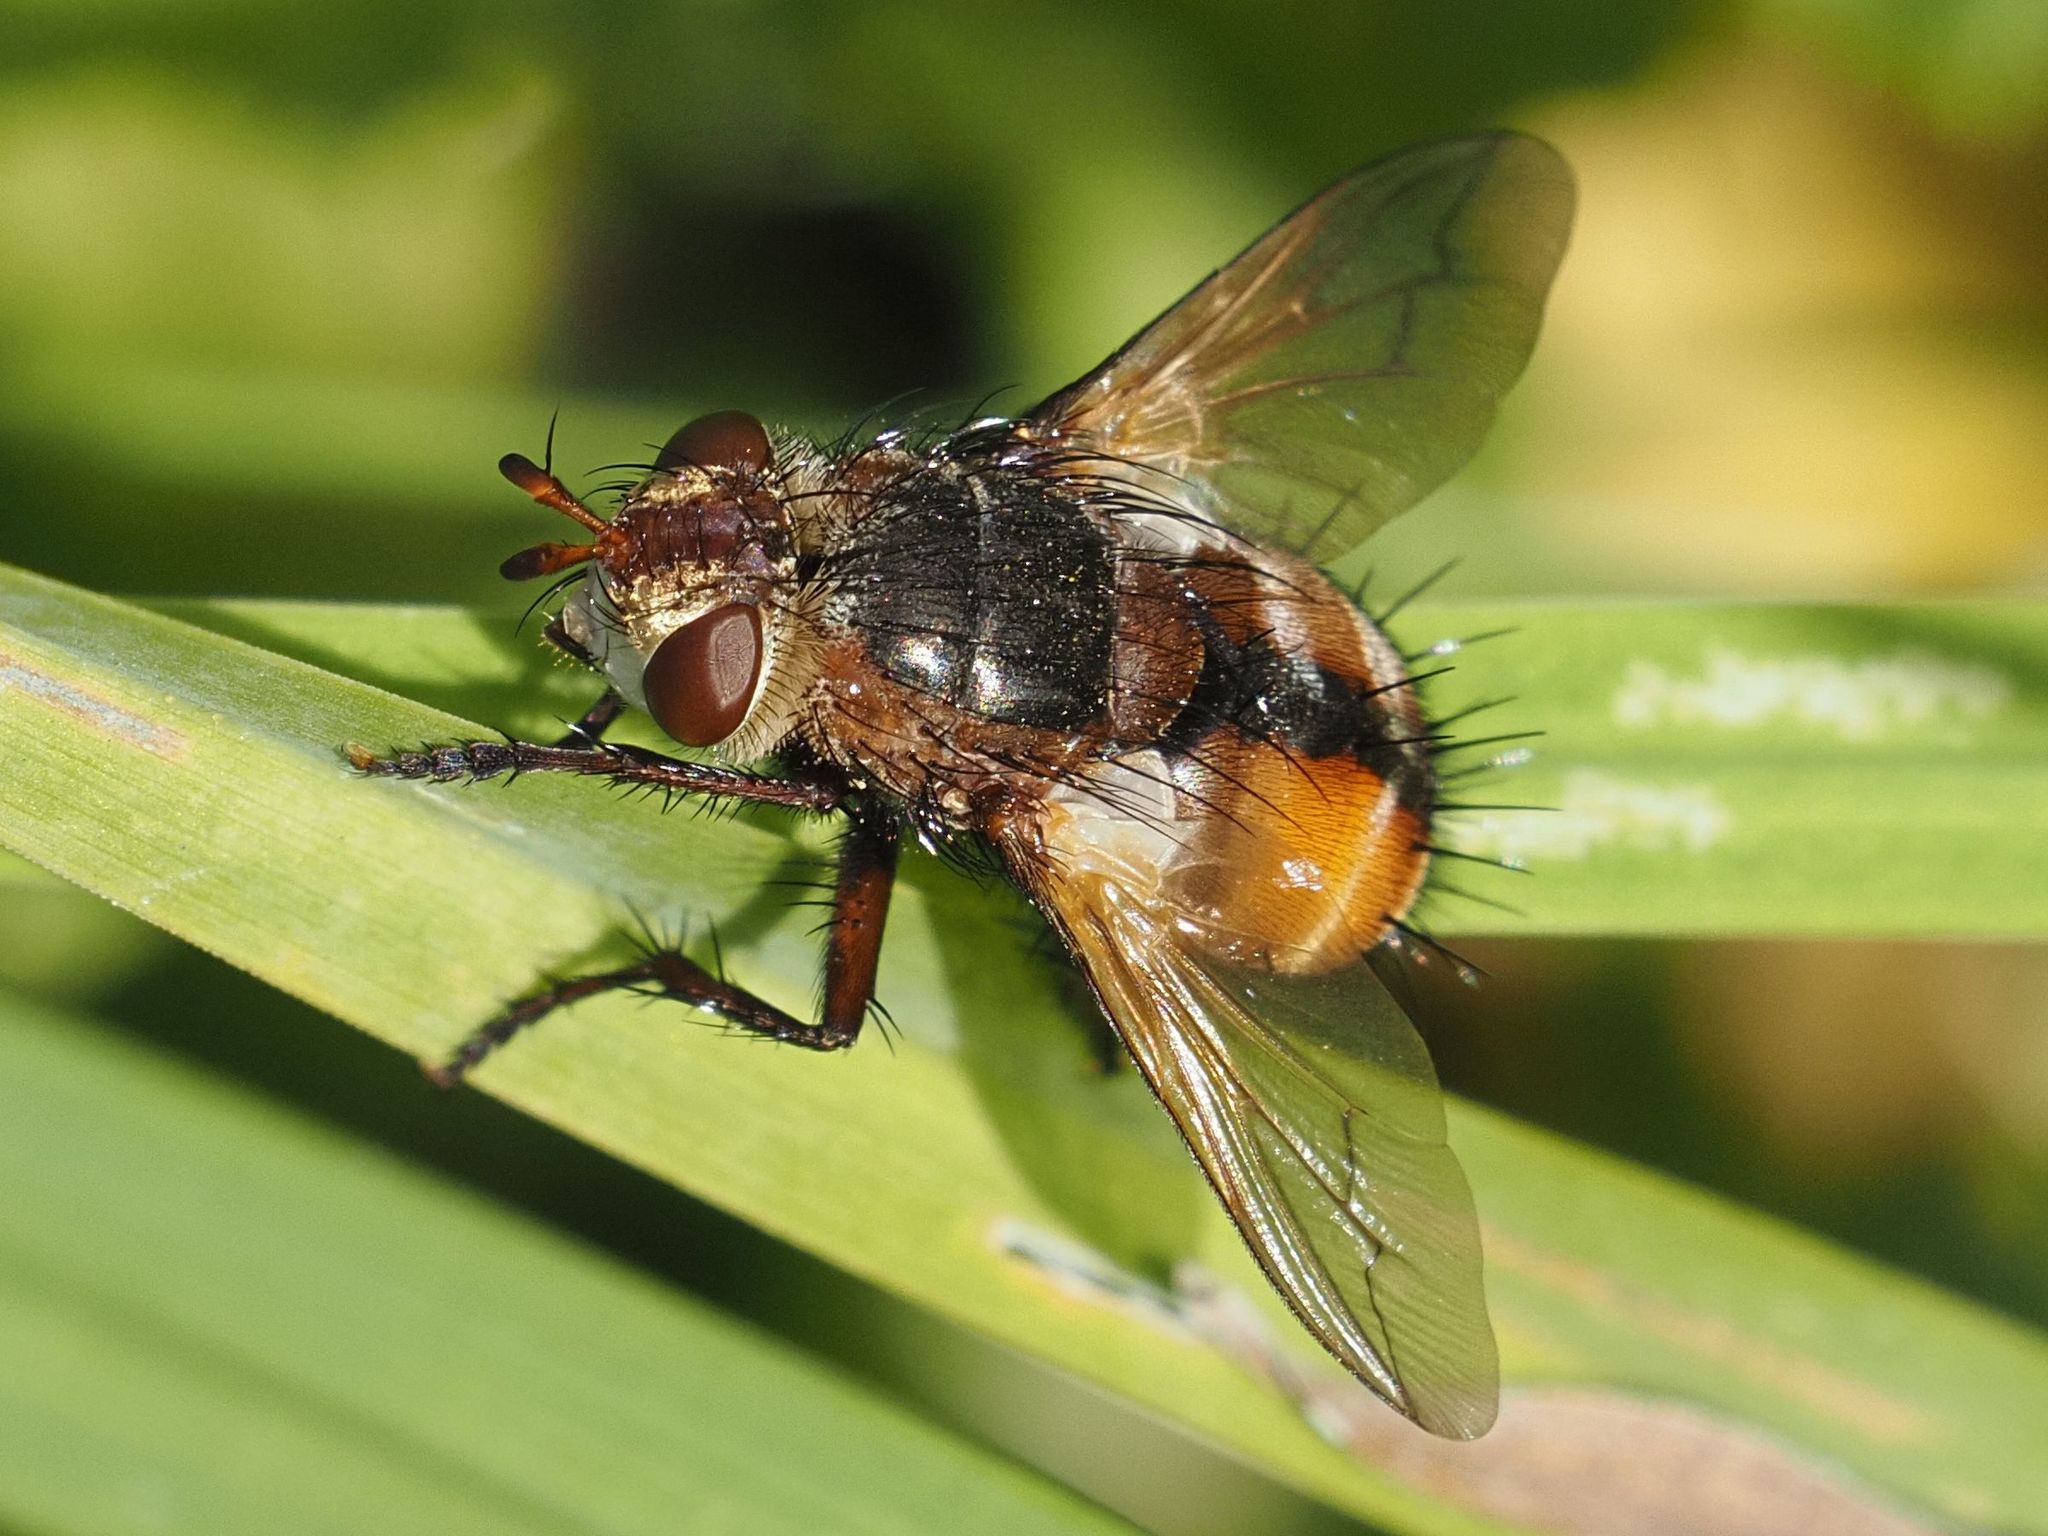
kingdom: Animalia
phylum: Arthropoda
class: Insecta
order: Diptera
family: Tachinidae
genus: Tachina
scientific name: Tachina fera
